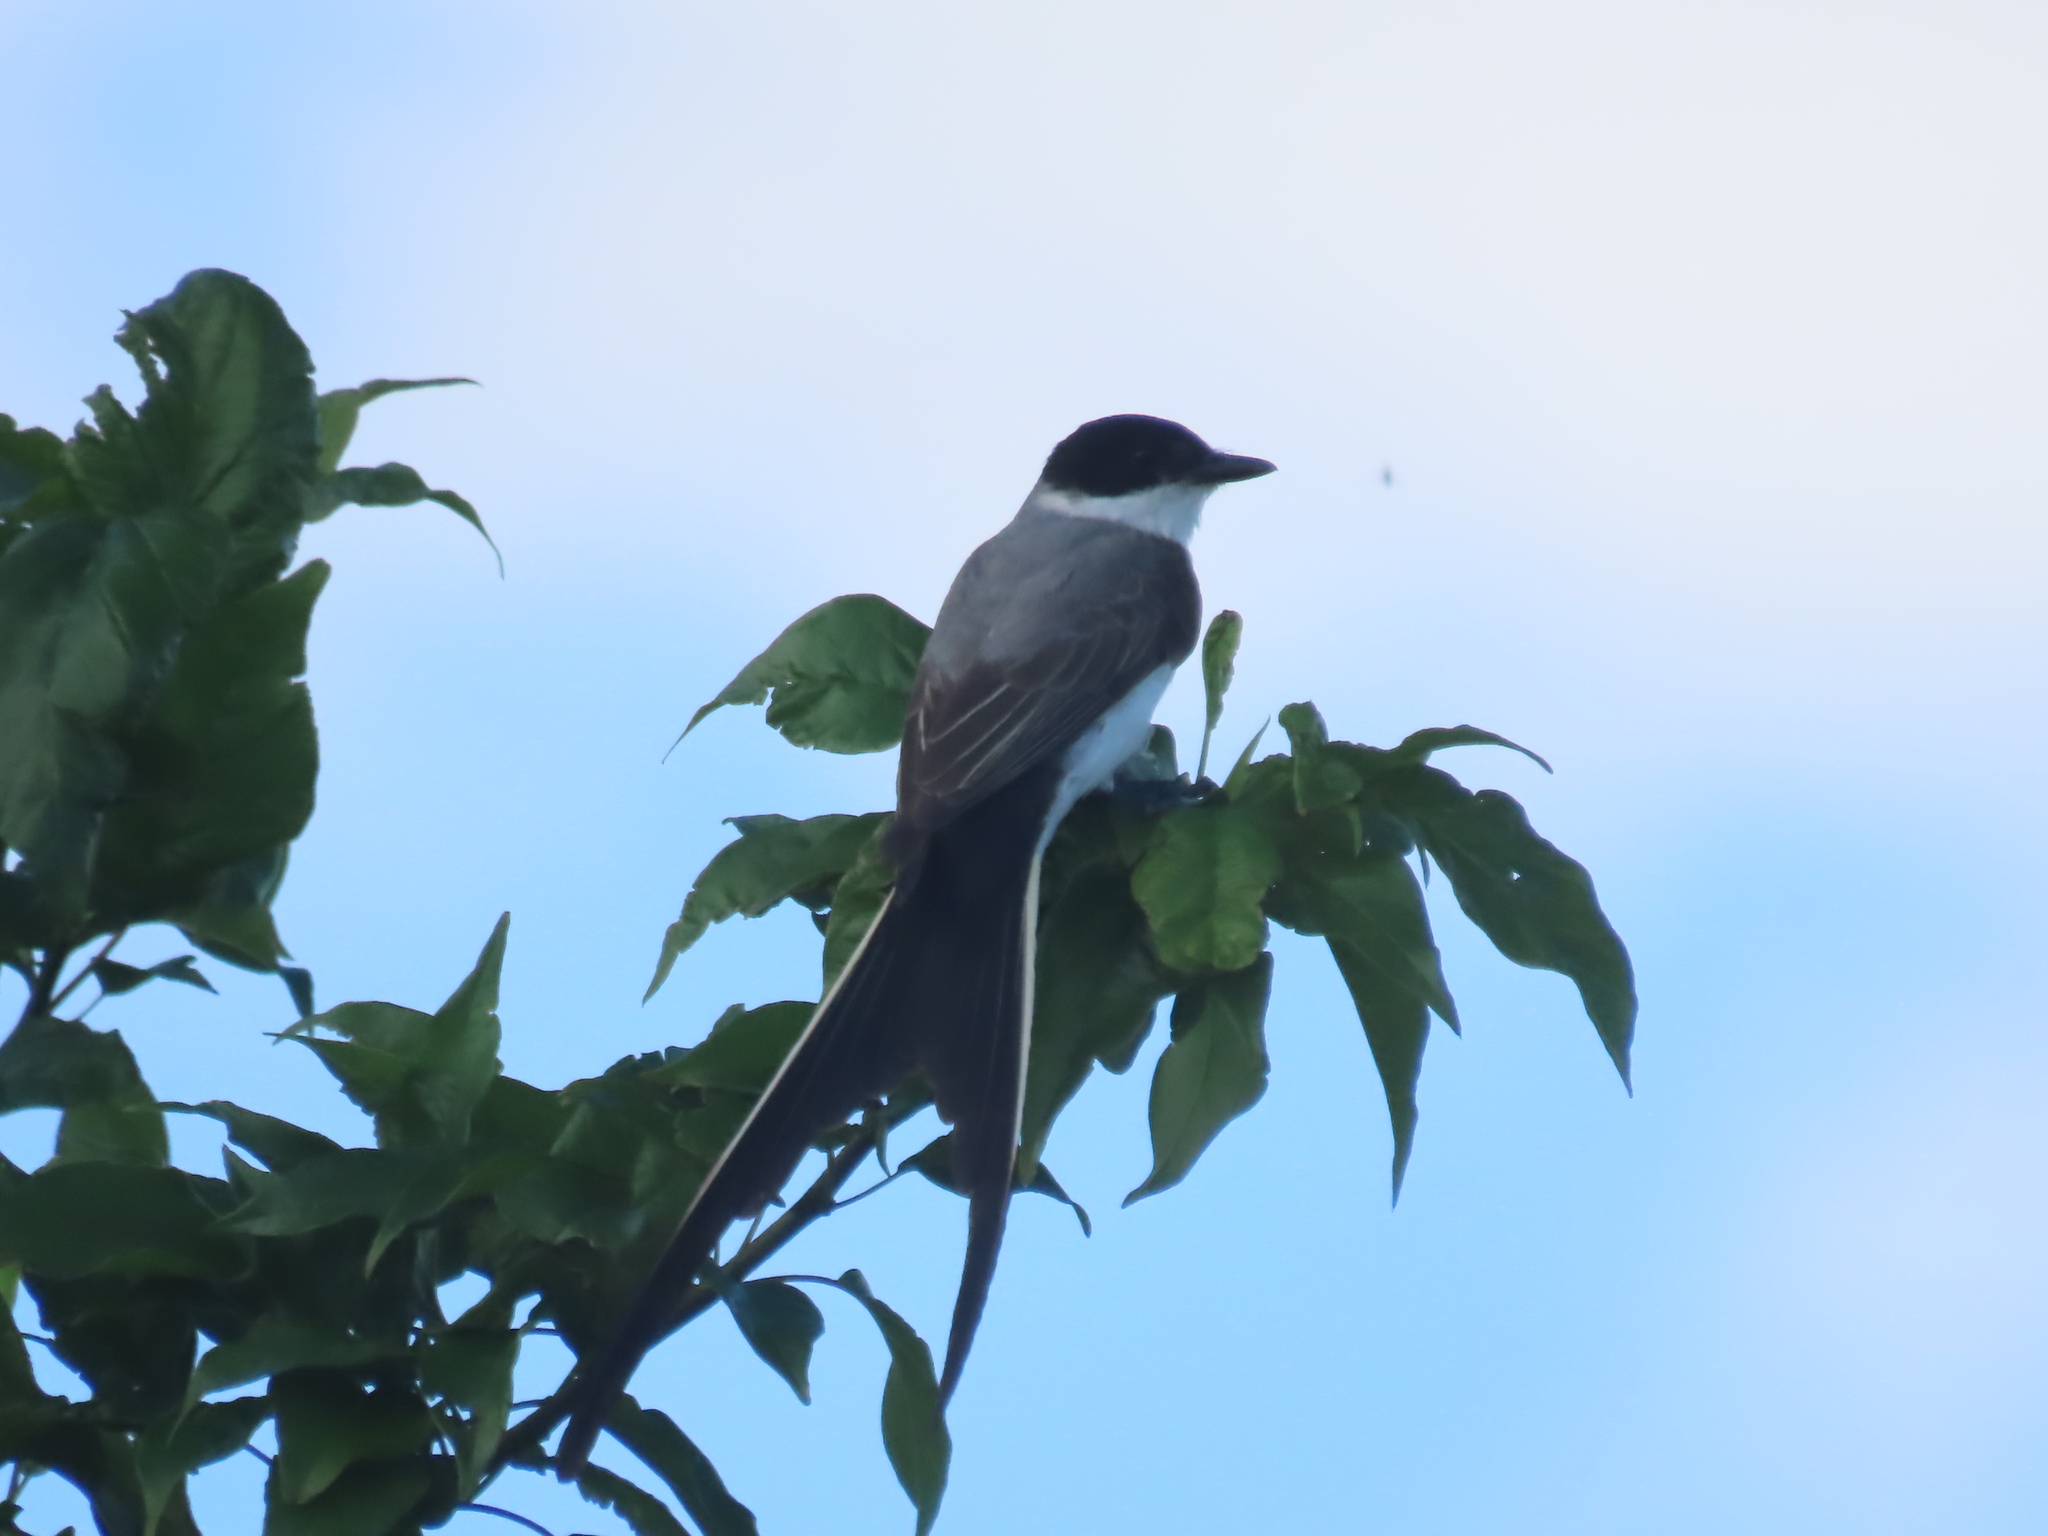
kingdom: Animalia
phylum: Chordata
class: Aves
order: Passeriformes
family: Tyrannidae
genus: Tyrannus
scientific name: Tyrannus savana
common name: Fork-tailed flycatcher
